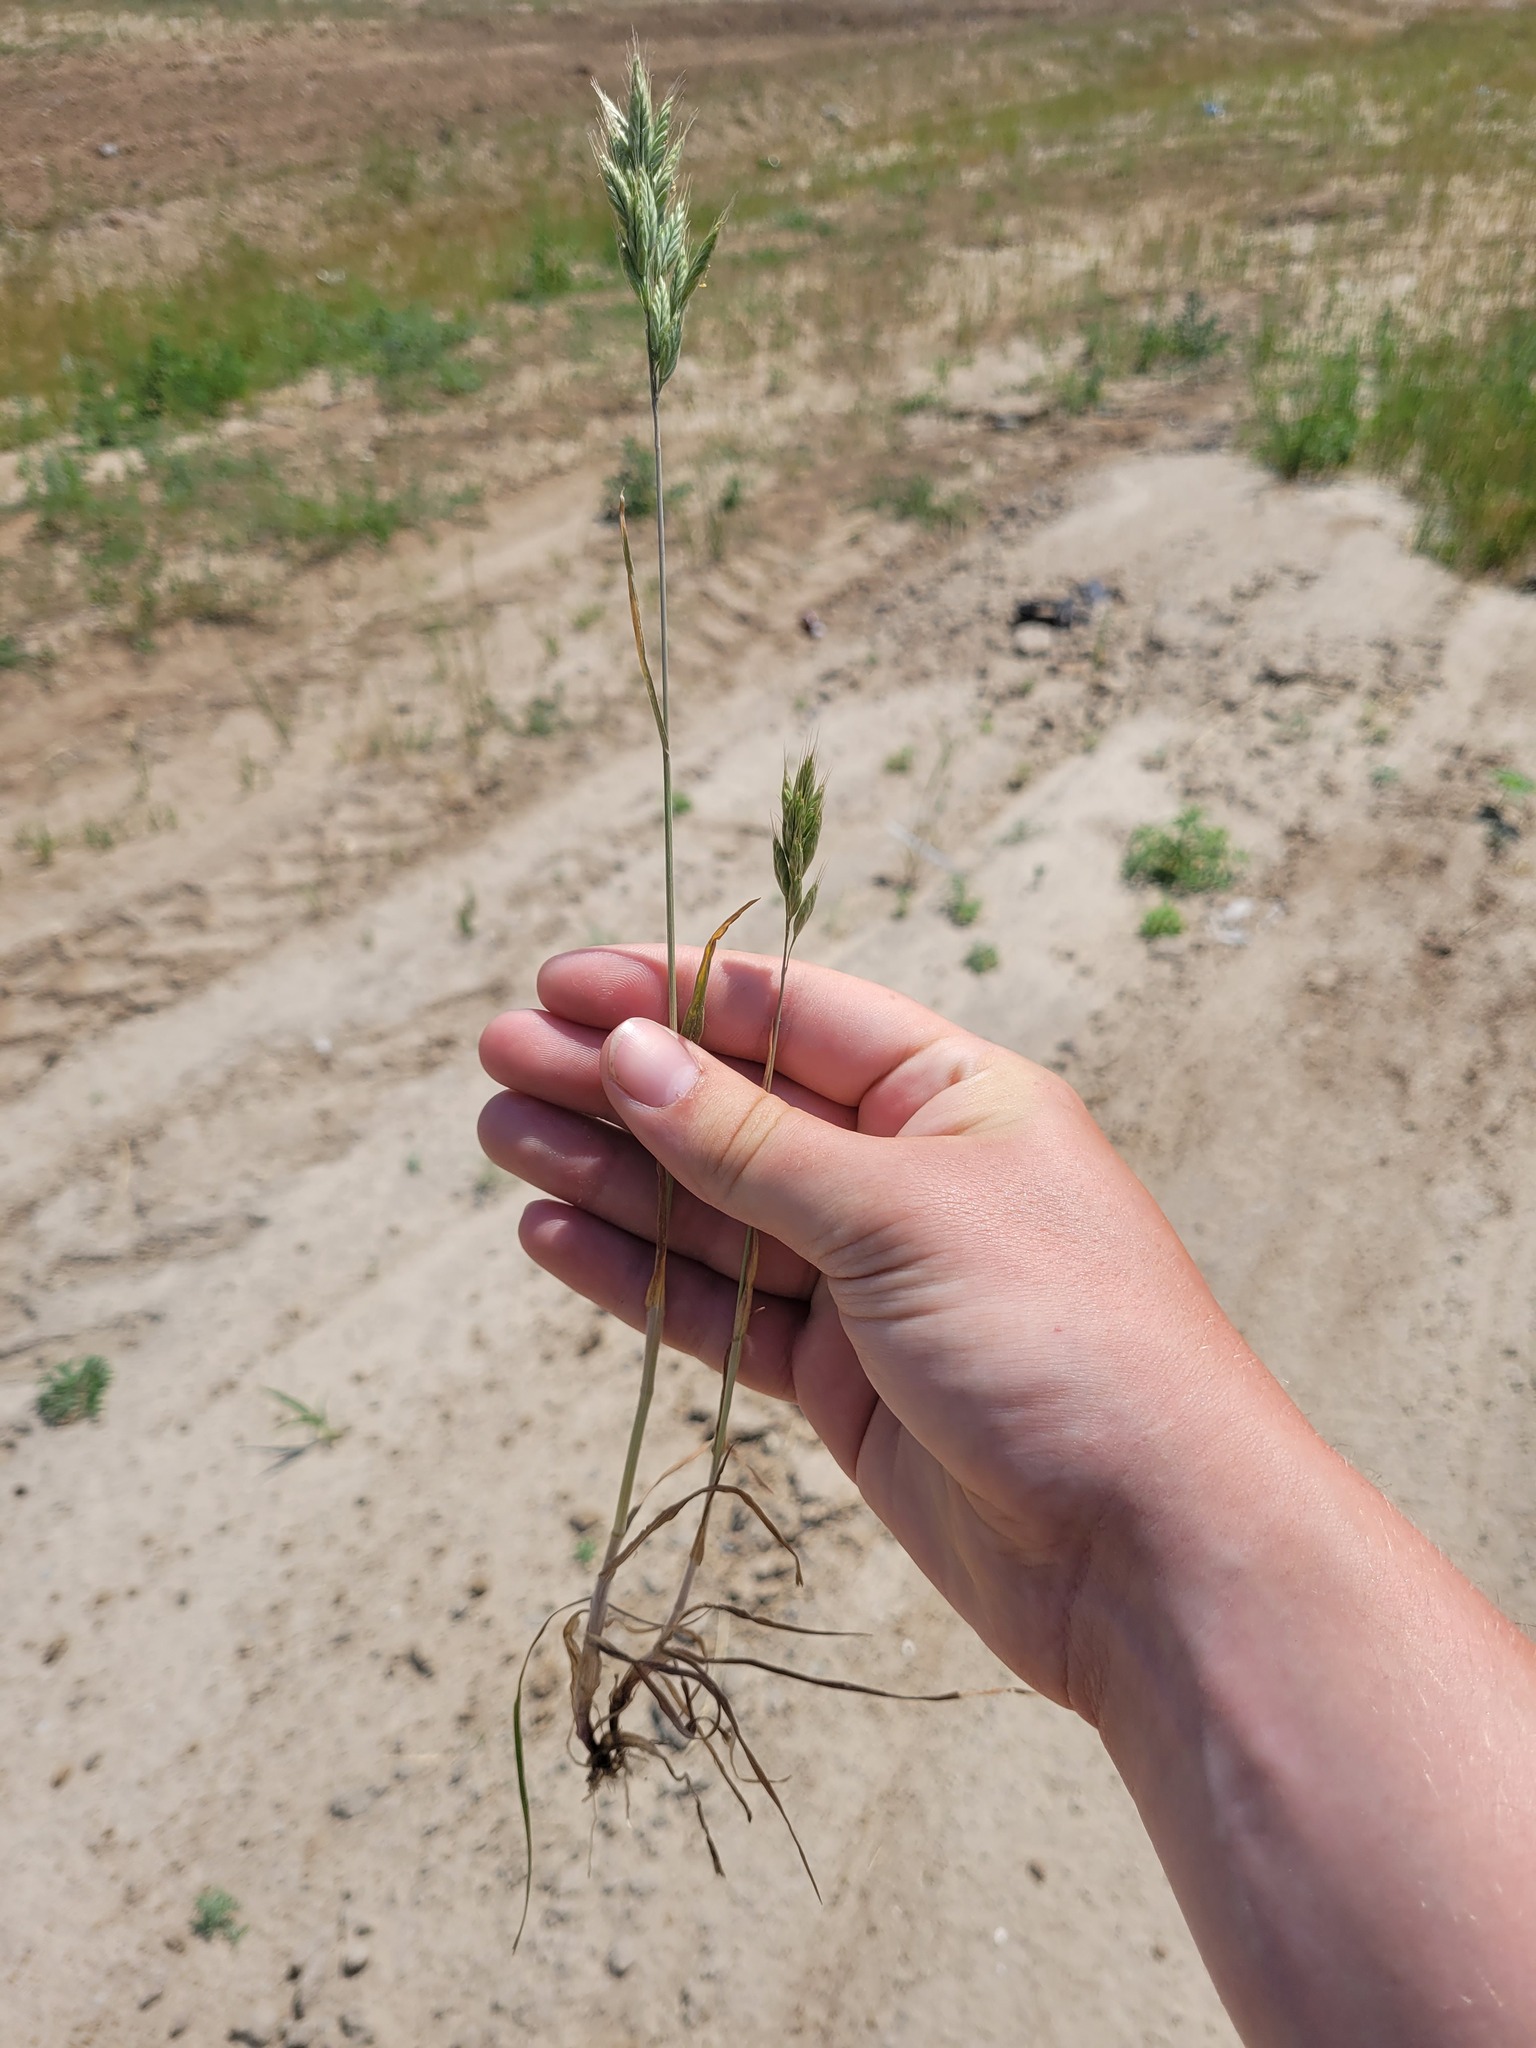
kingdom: Plantae
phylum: Tracheophyta
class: Liliopsida
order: Poales
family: Poaceae
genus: Bromus
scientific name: Bromus hordeaceus
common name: Soft brome
